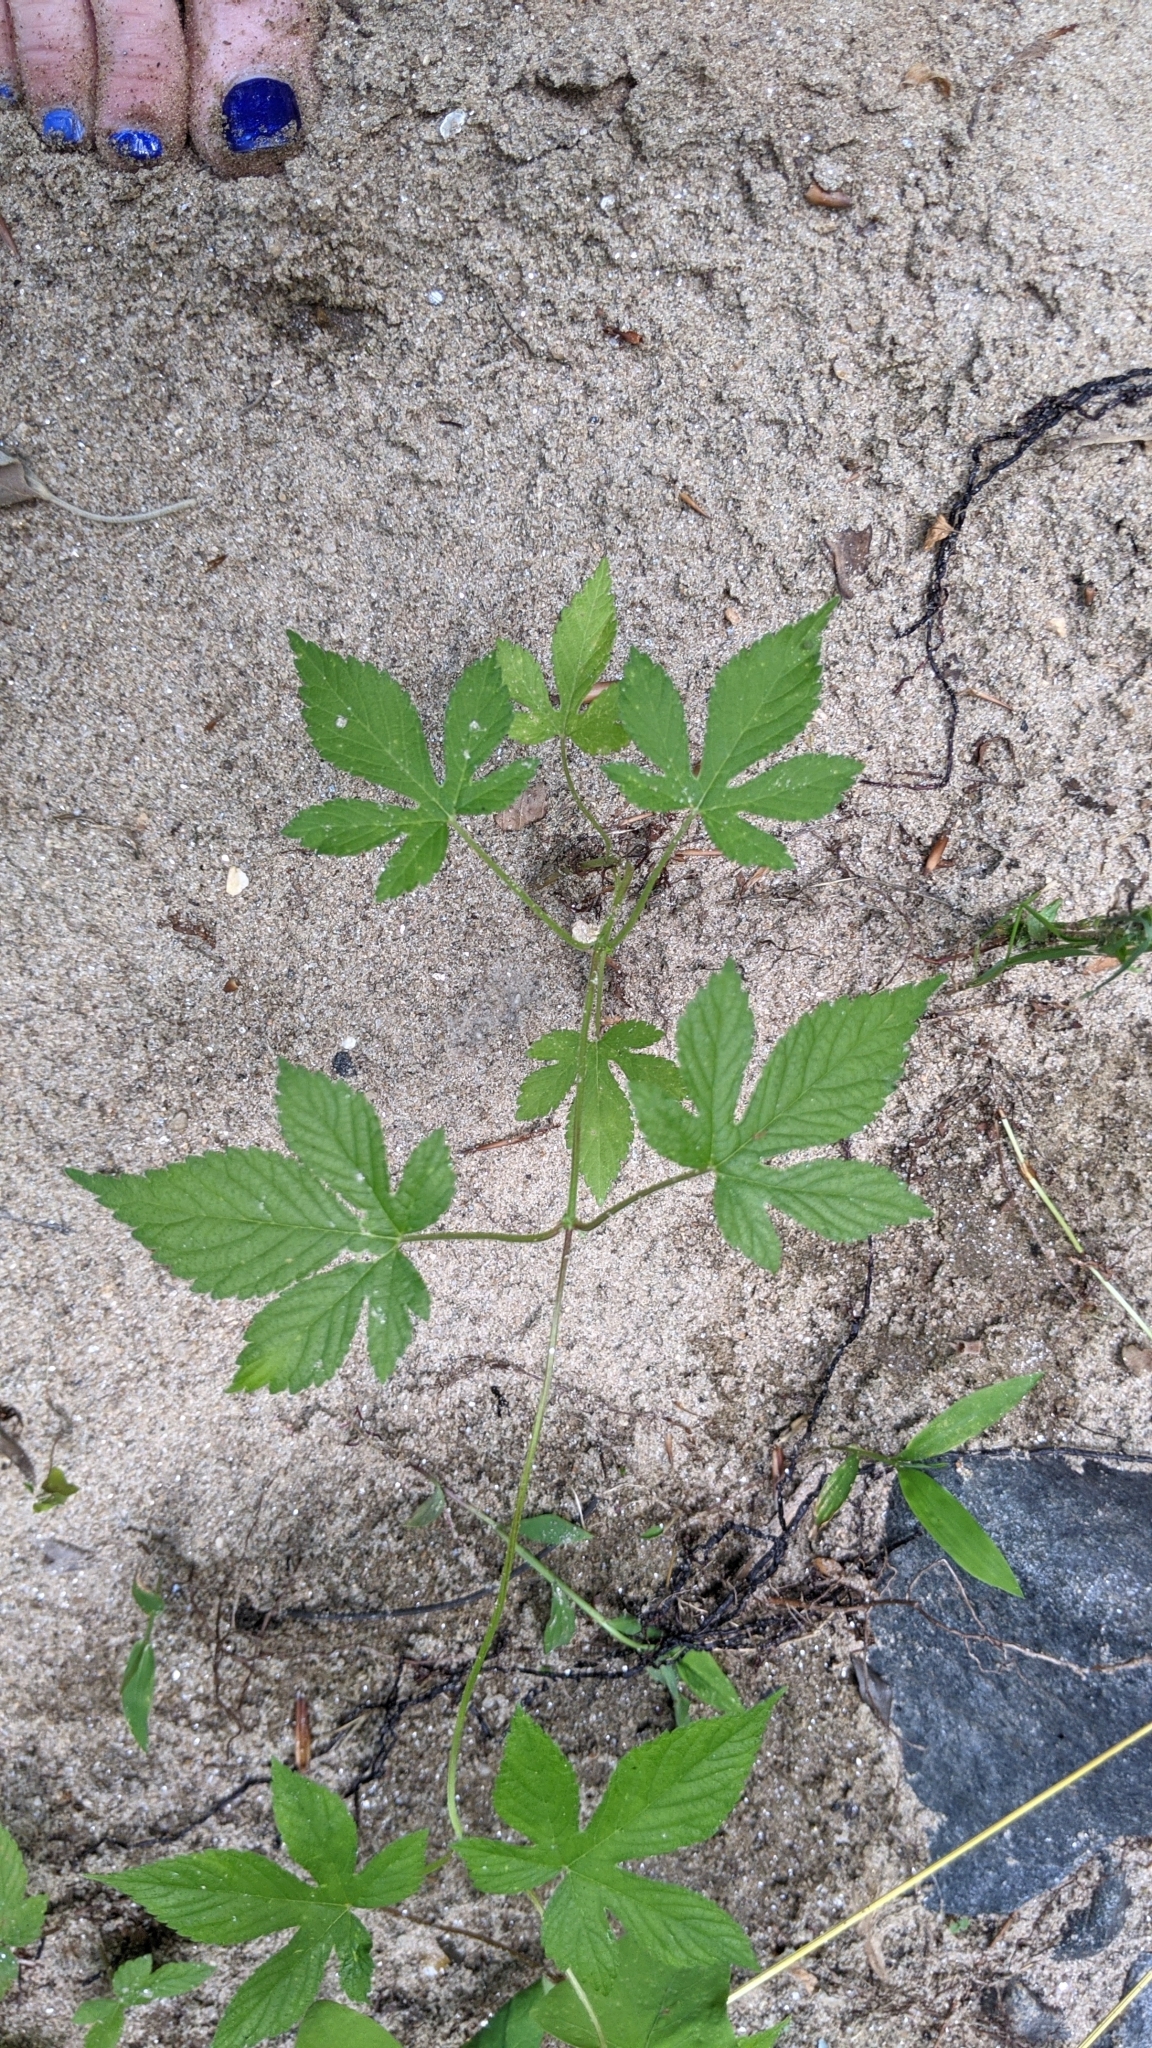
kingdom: Plantae
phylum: Tracheophyta
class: Magnoliopsida
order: Rosales
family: Cannabaceae
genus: Humulus
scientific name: Humulus scandens
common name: Japanese hop
